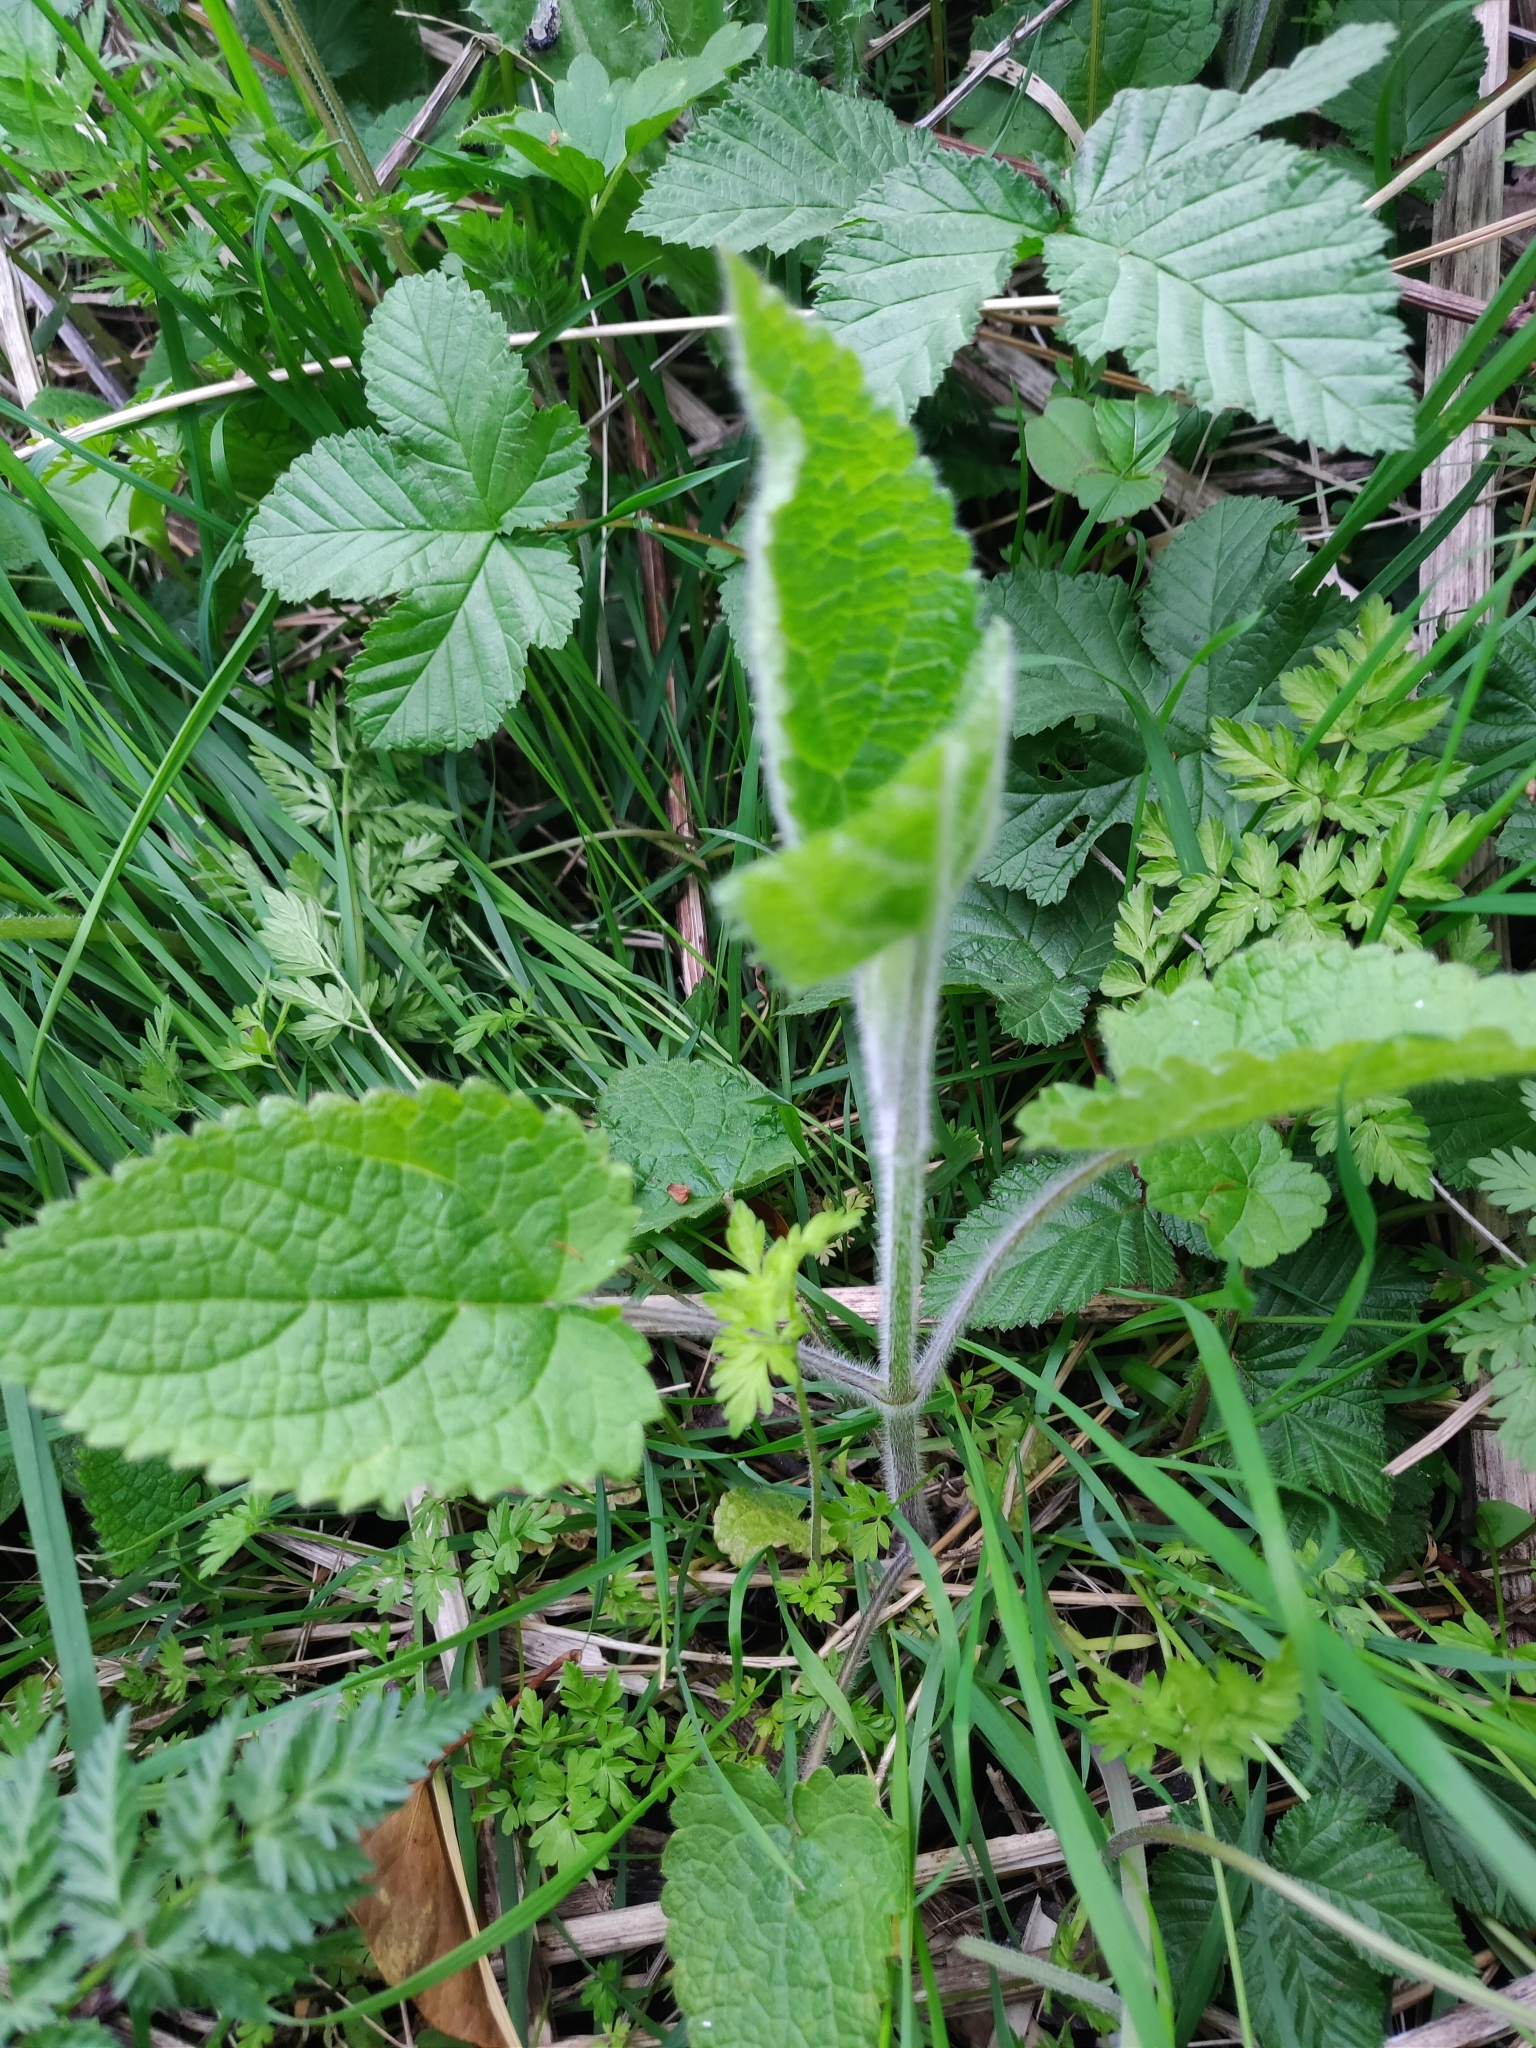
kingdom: Plantae
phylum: Tracheophyta
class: Magnoliopsida
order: Lamiales
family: Lamiaceae
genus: Stachys
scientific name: Stachys sylvatica
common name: Hedge woundwort
